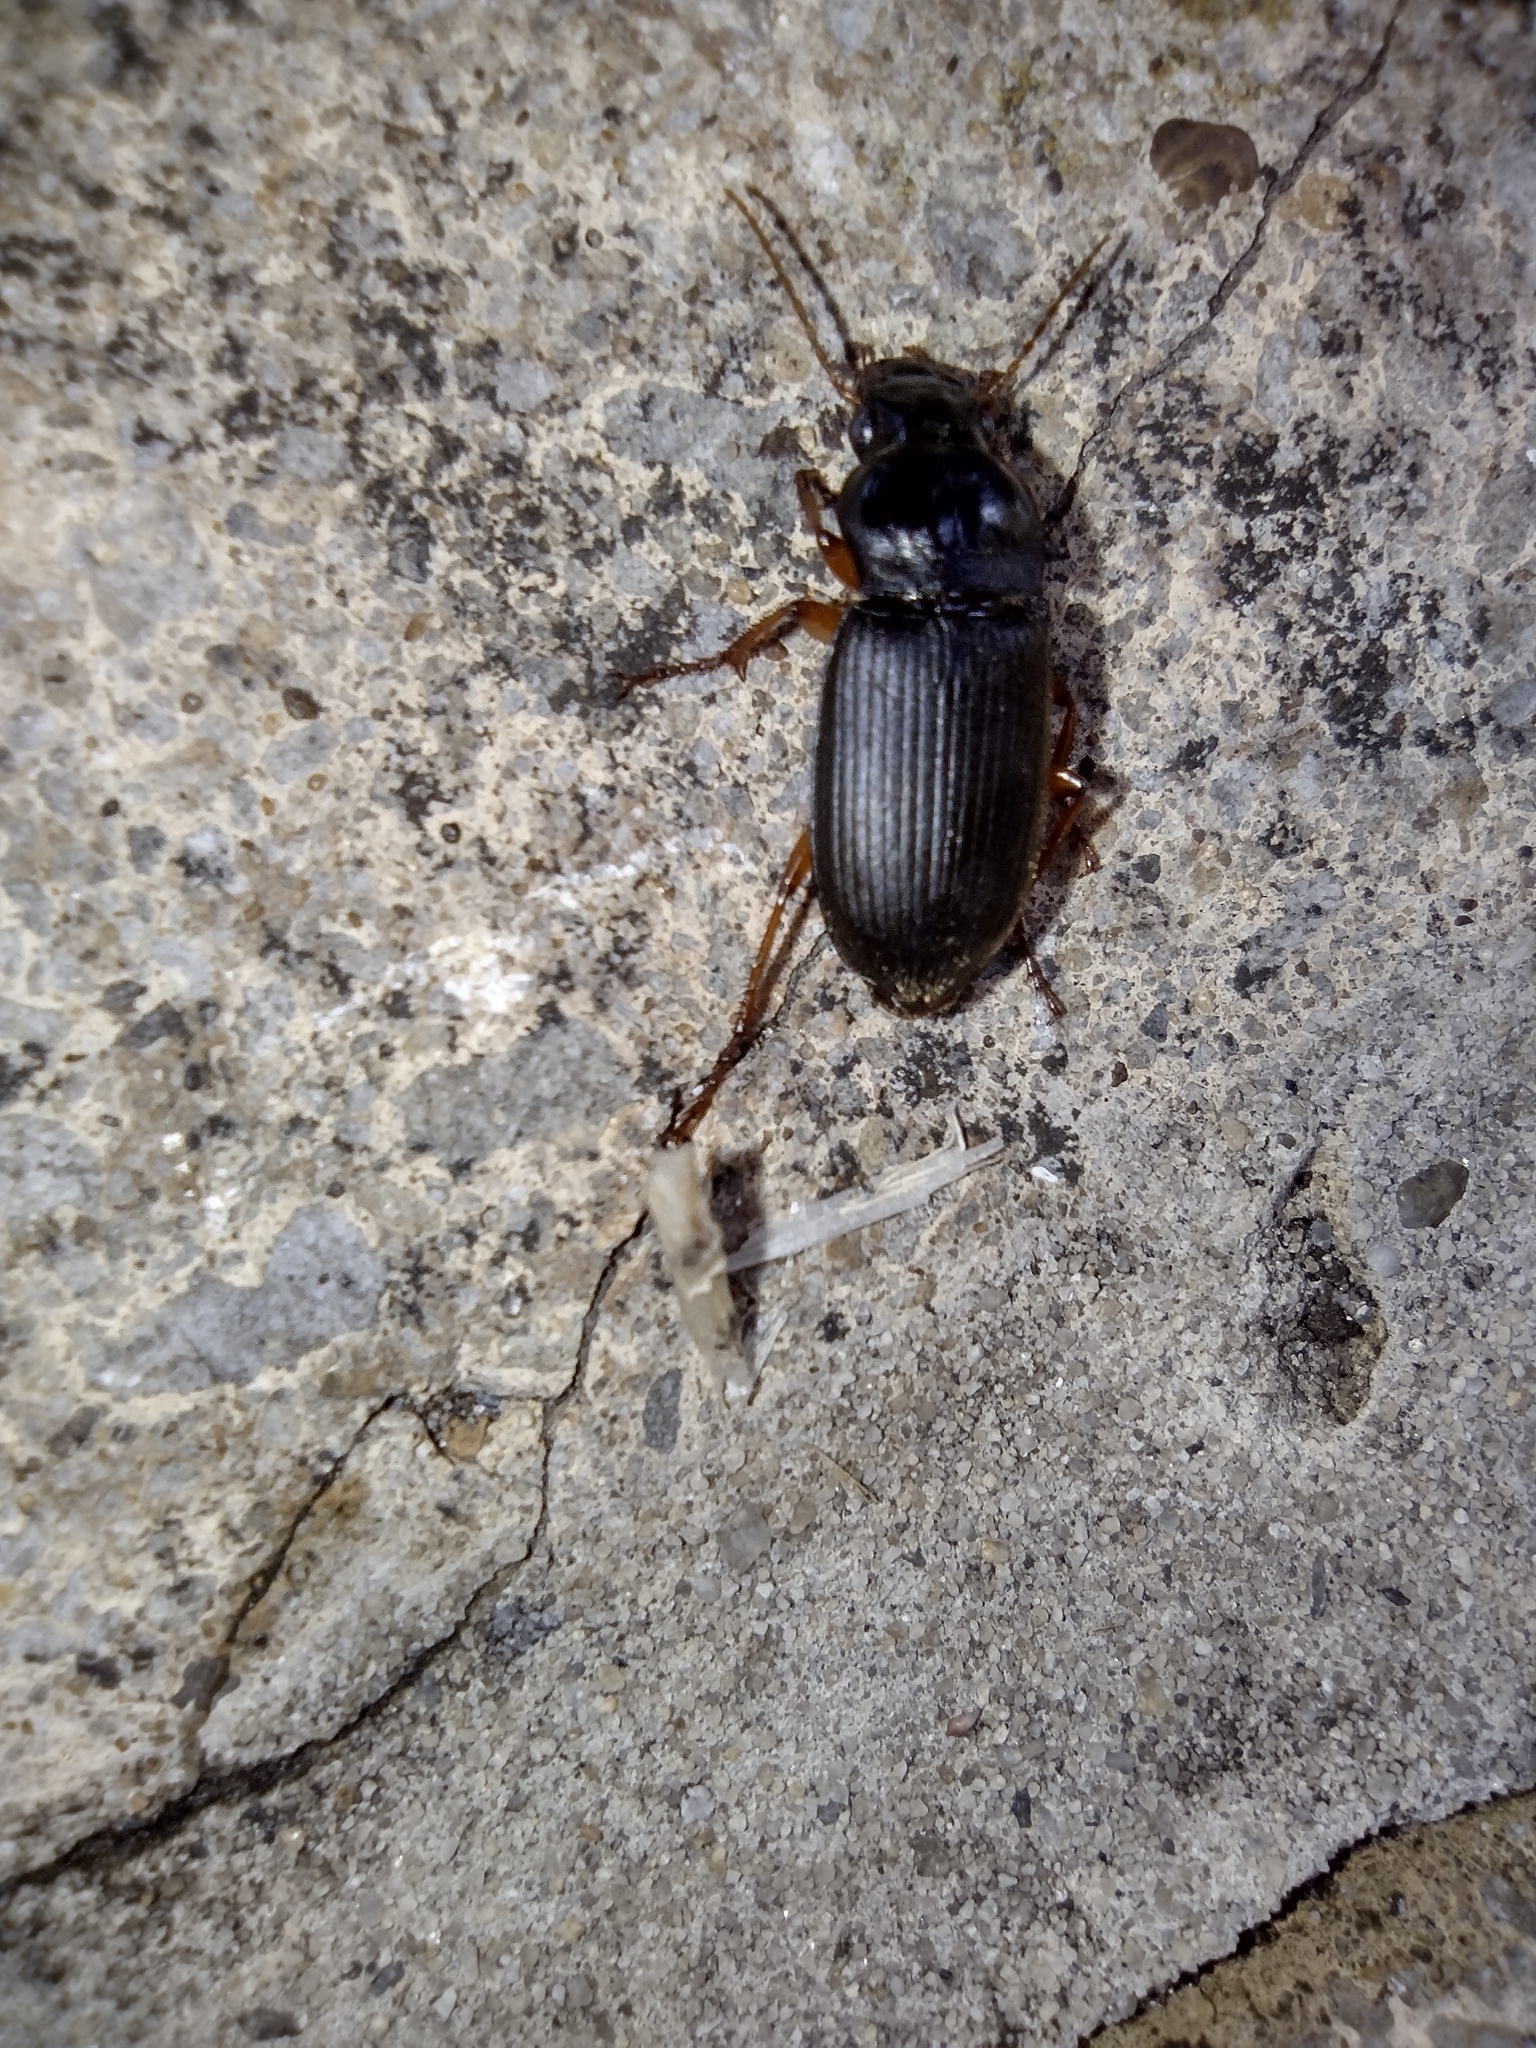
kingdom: Animalia
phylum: Arthropoda
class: Insecta
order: Coleoptera
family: Carabidae
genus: Harpalus
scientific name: Harpalus rufipes
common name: Strawberry harp ground beetle
